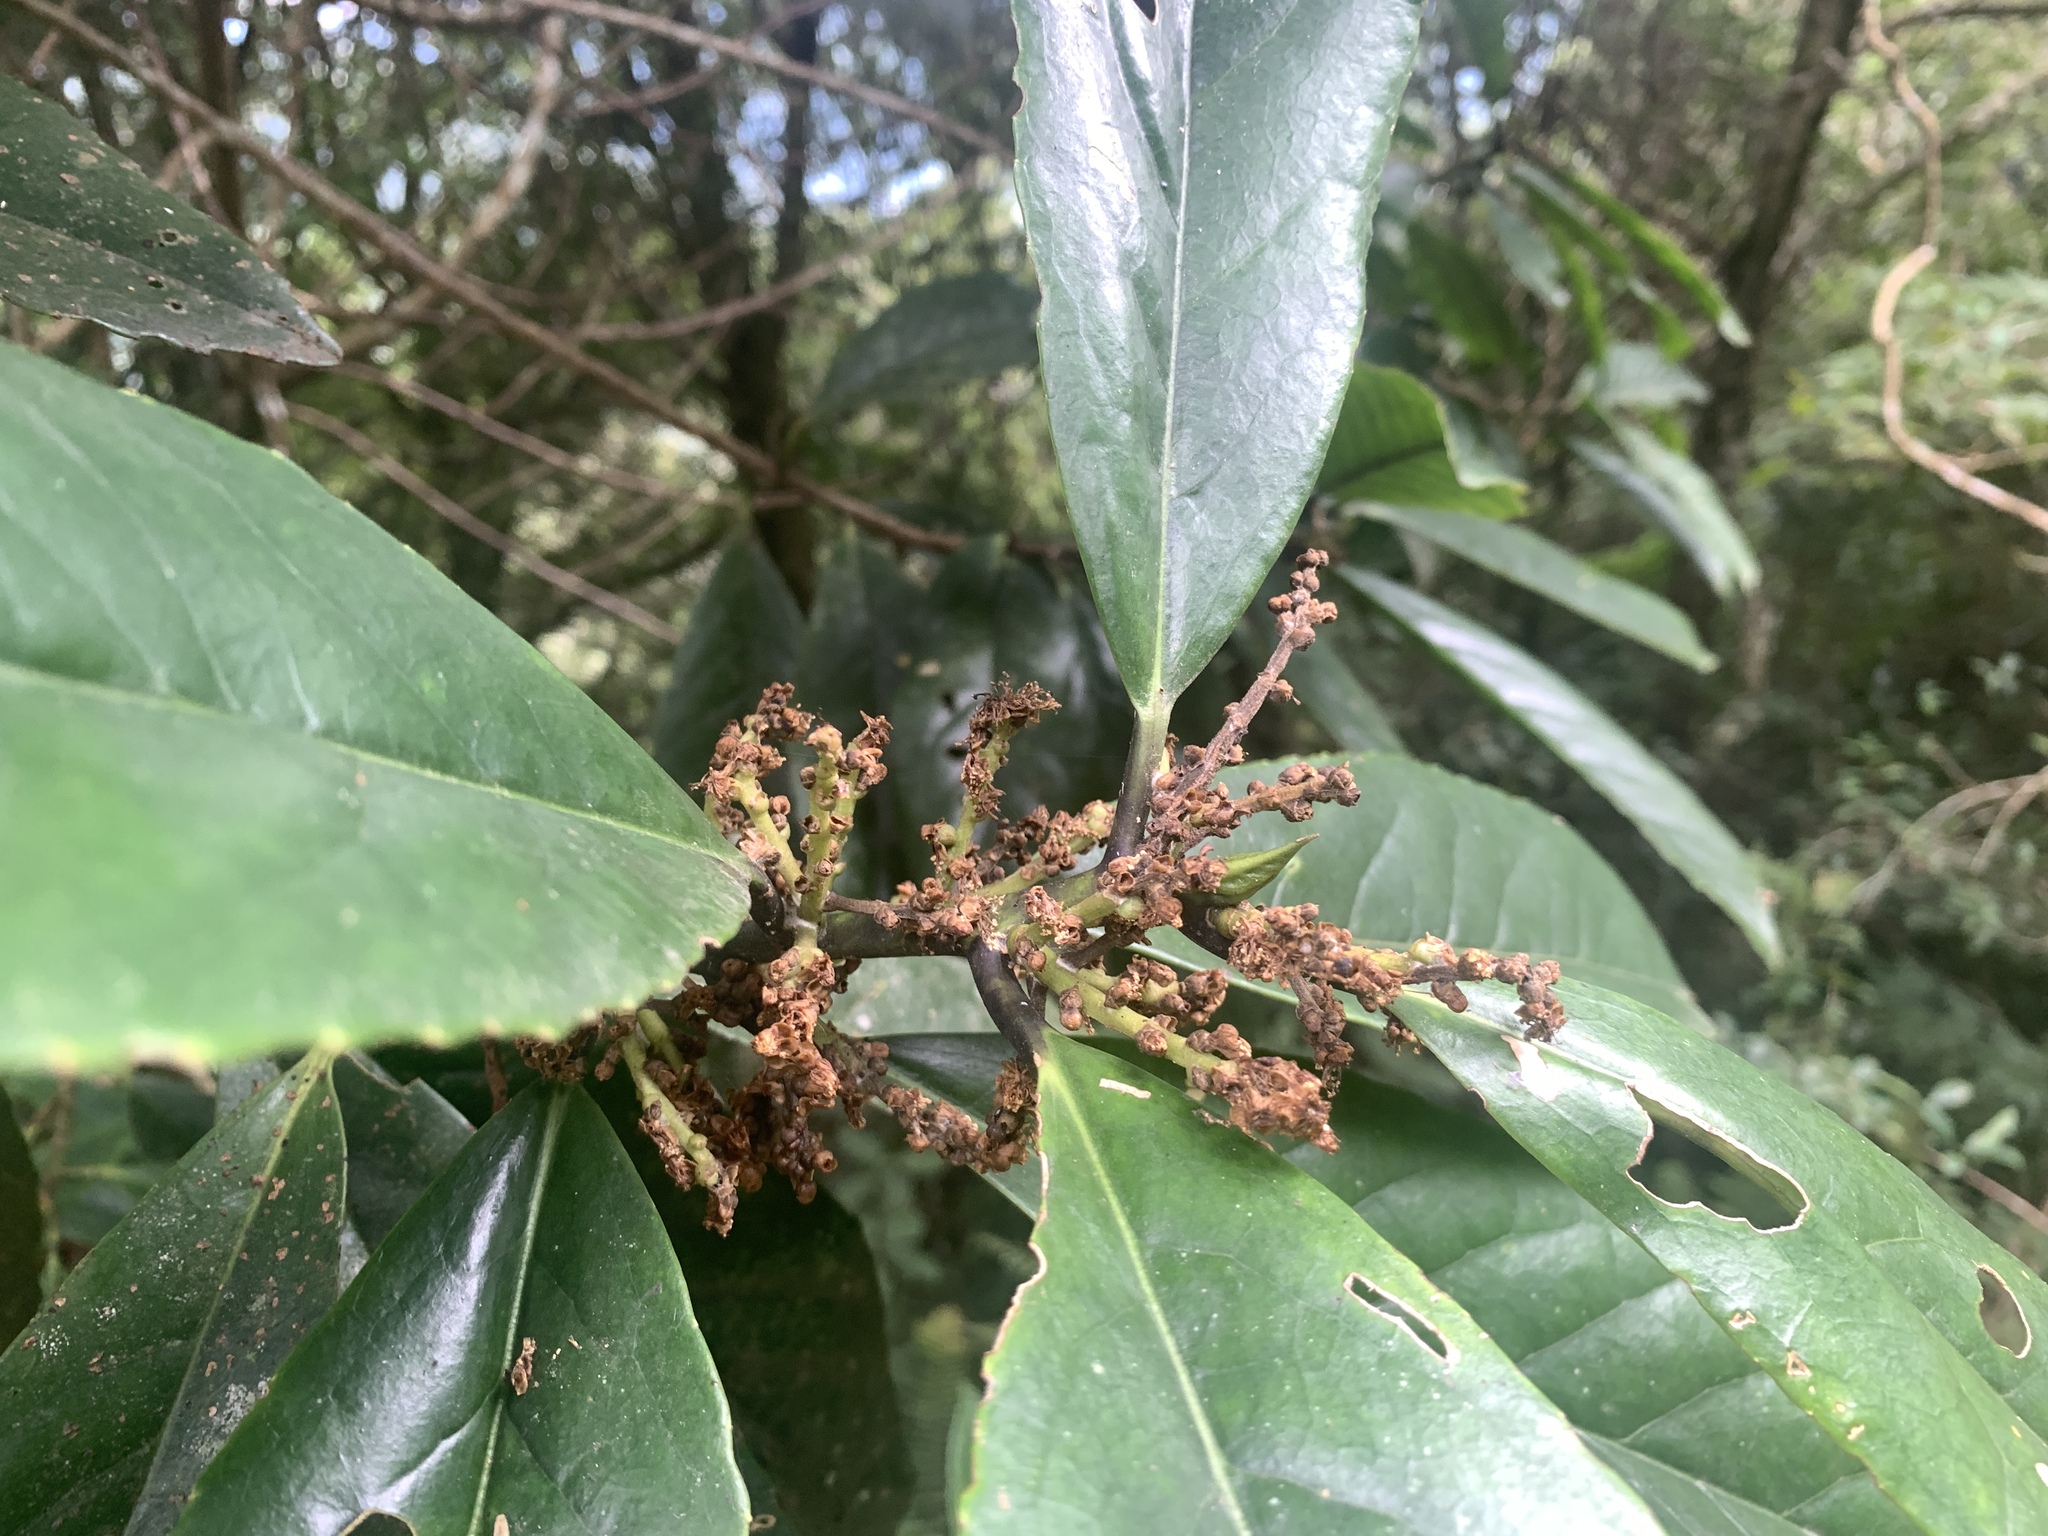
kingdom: Plantae
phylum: Tracheophyta
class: Magnoliopsida
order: Ericales
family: Symplocaceae
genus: Symplocos
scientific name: Symplocos acuminata
